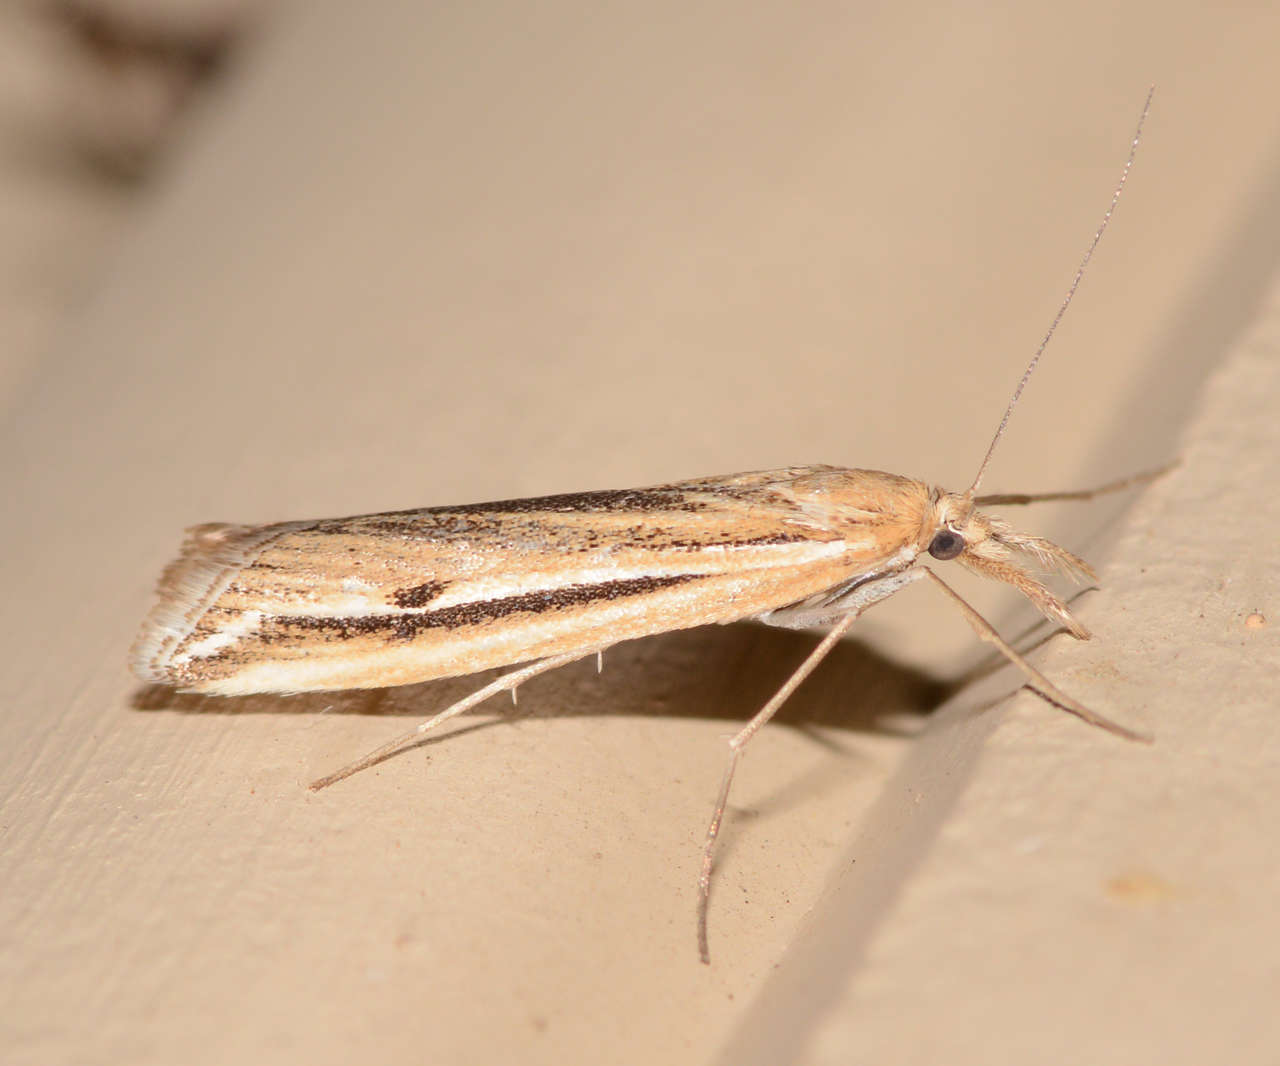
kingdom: Animalia
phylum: Arthropoda
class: Insecta
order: Lepidoptera
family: Crambidae
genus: Hednota
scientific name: Hednota acontophora
